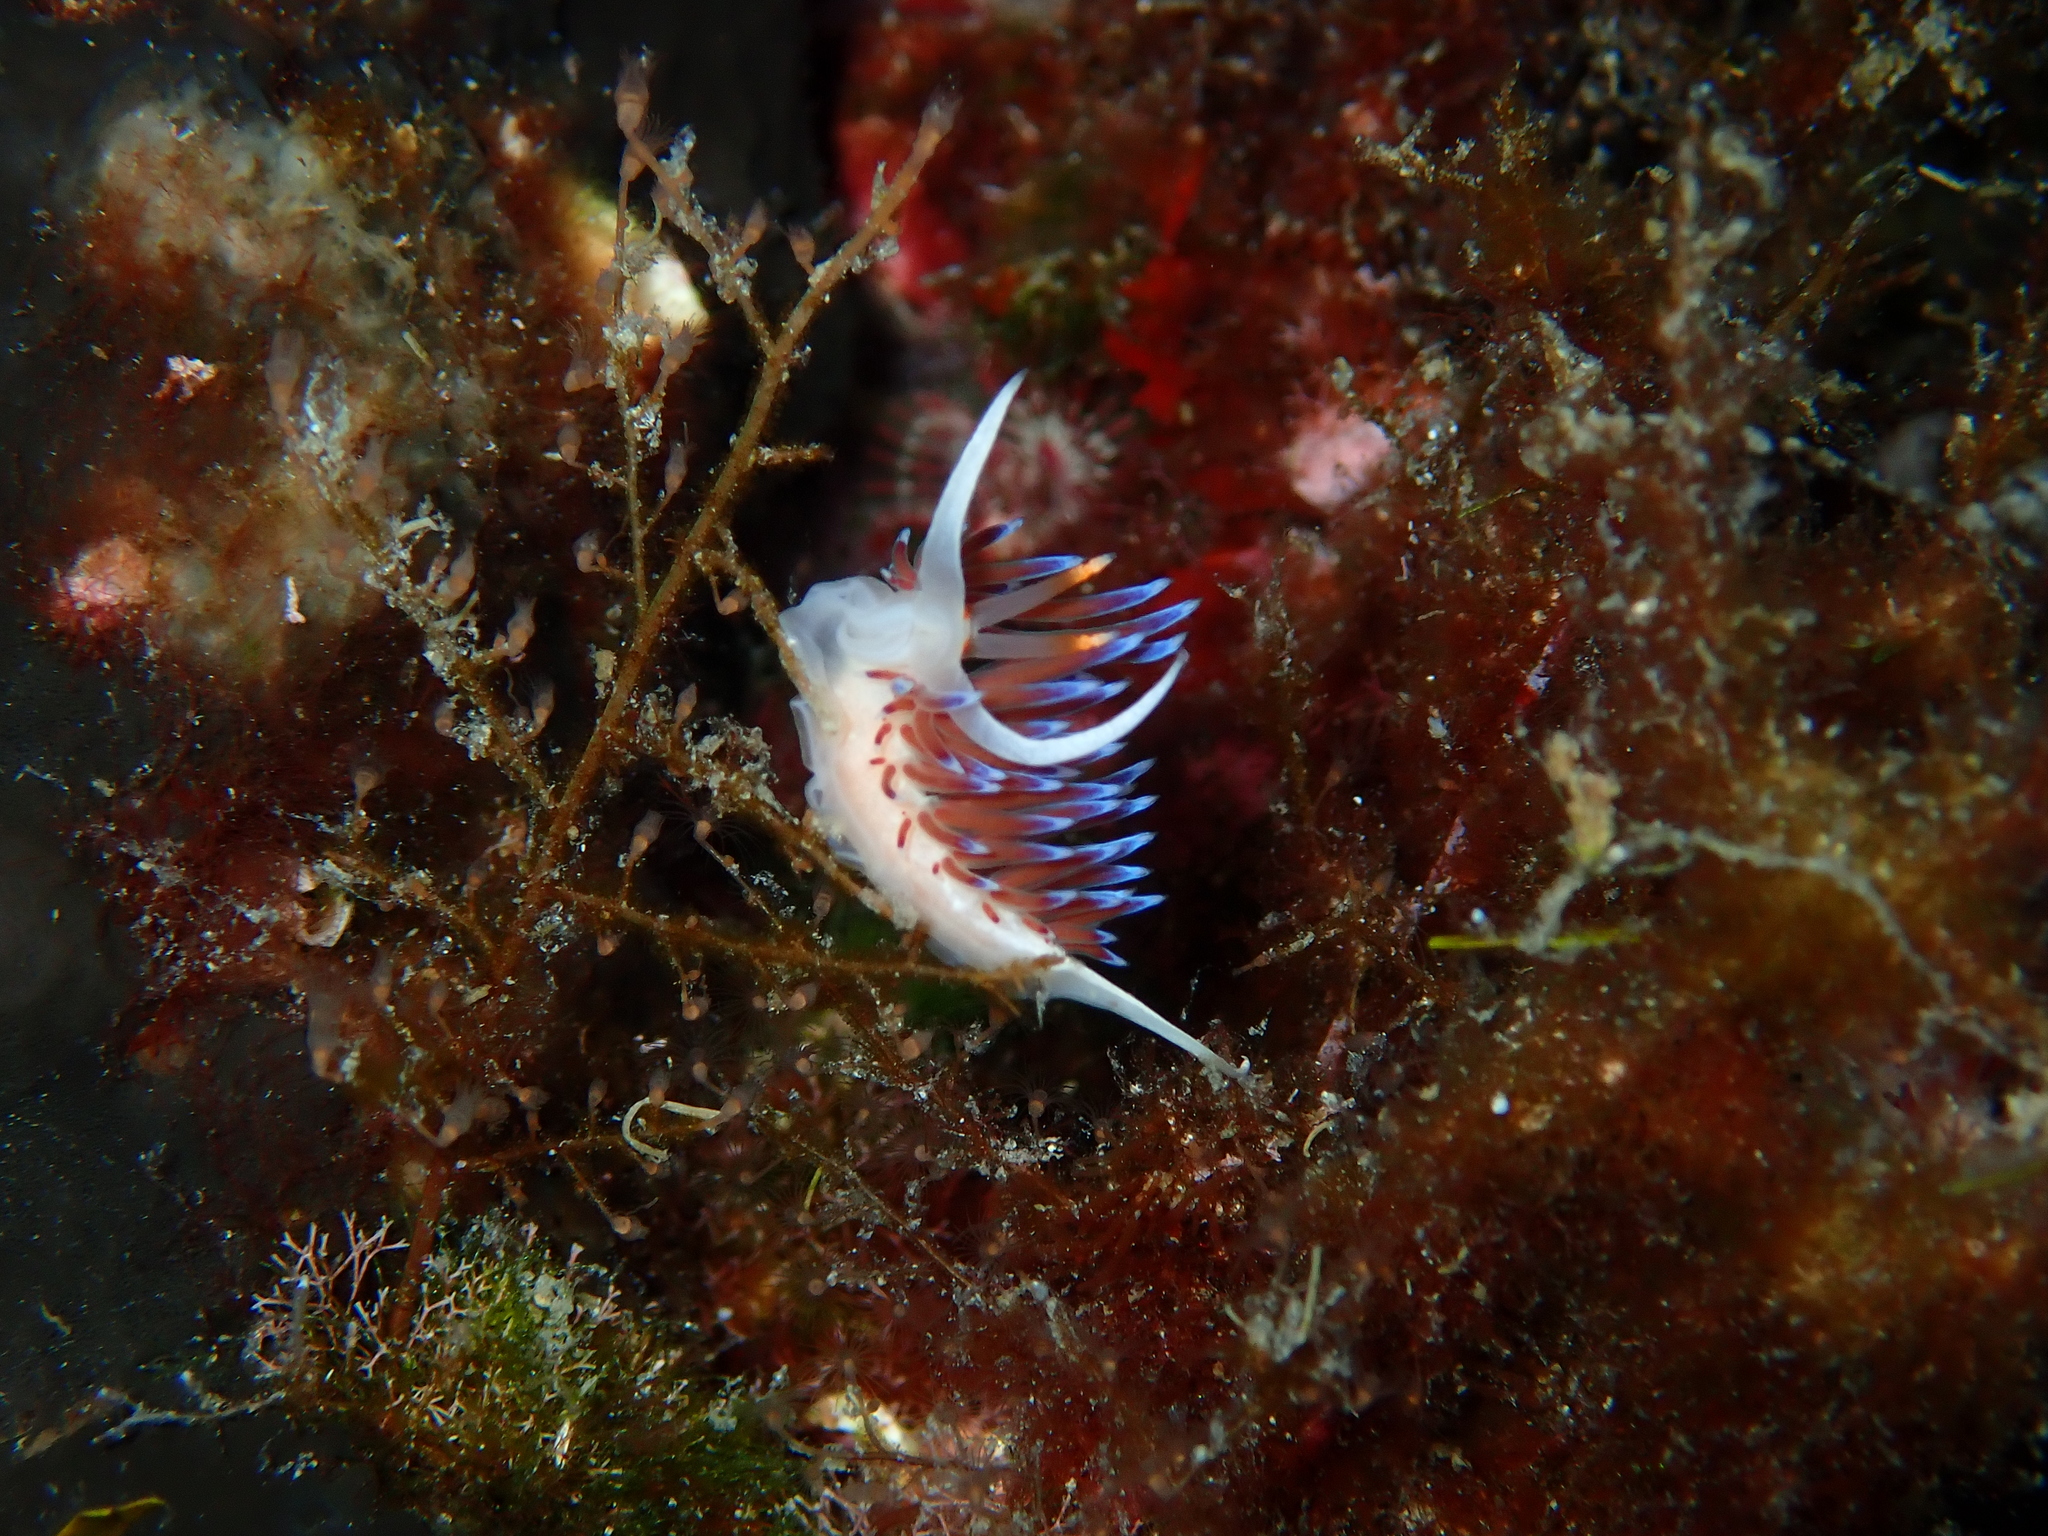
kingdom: Animalia
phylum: Mollusca
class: Gastropoda
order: Nudibranchia
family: Facelinidae
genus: Cratena
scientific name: Cratena peregrina
